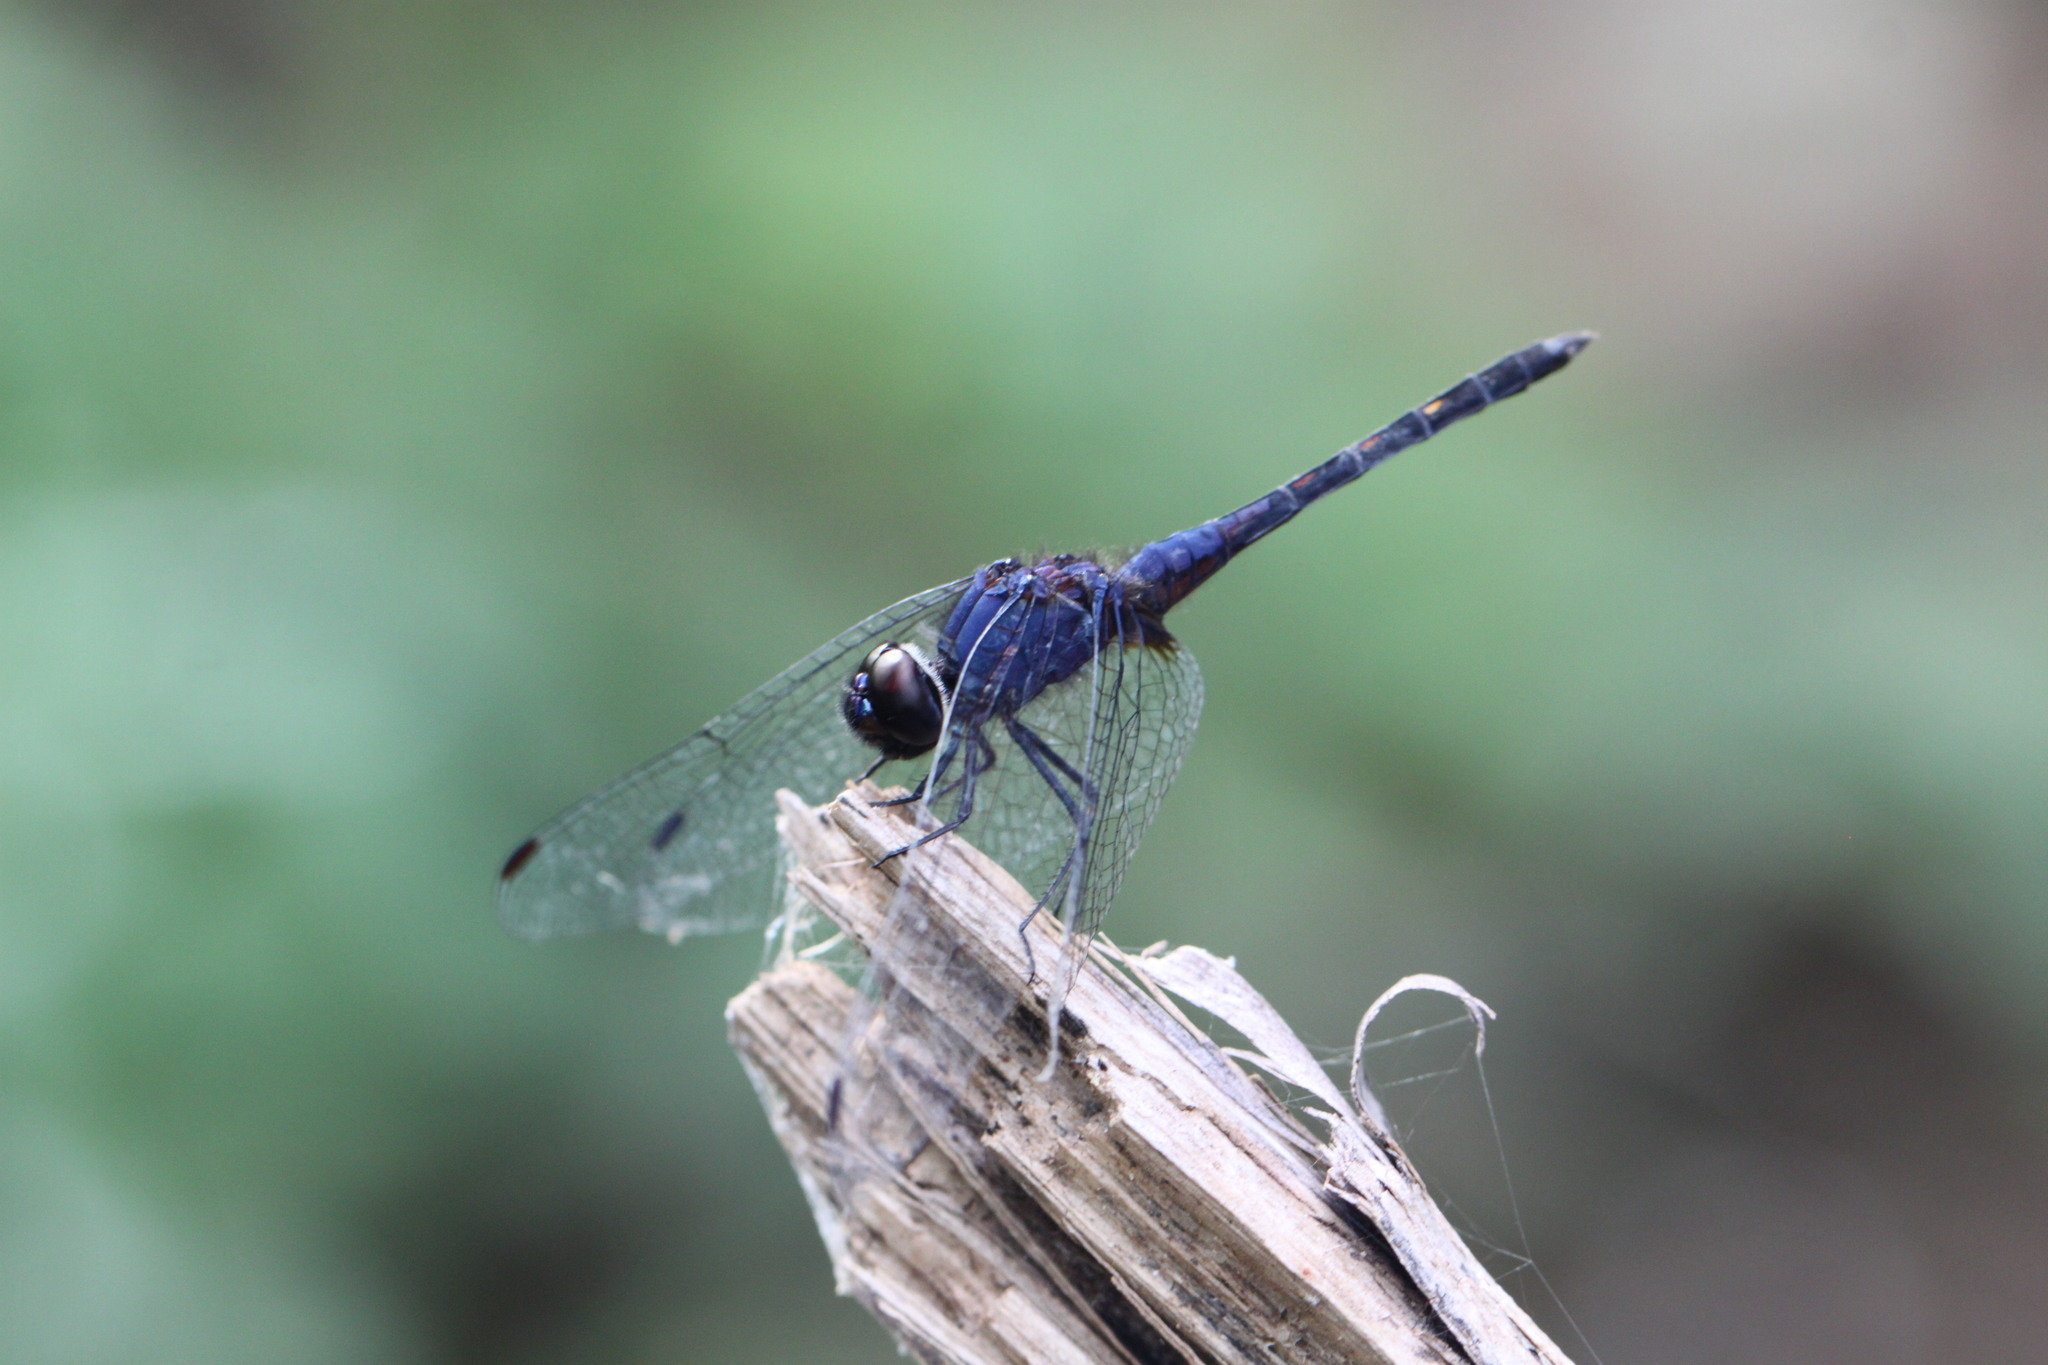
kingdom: Animalia
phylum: Arthropoda
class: Insecta
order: Odonata
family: Libellulidae
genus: Trithemis
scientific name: Trithemis festiva
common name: Indigo dropwing
